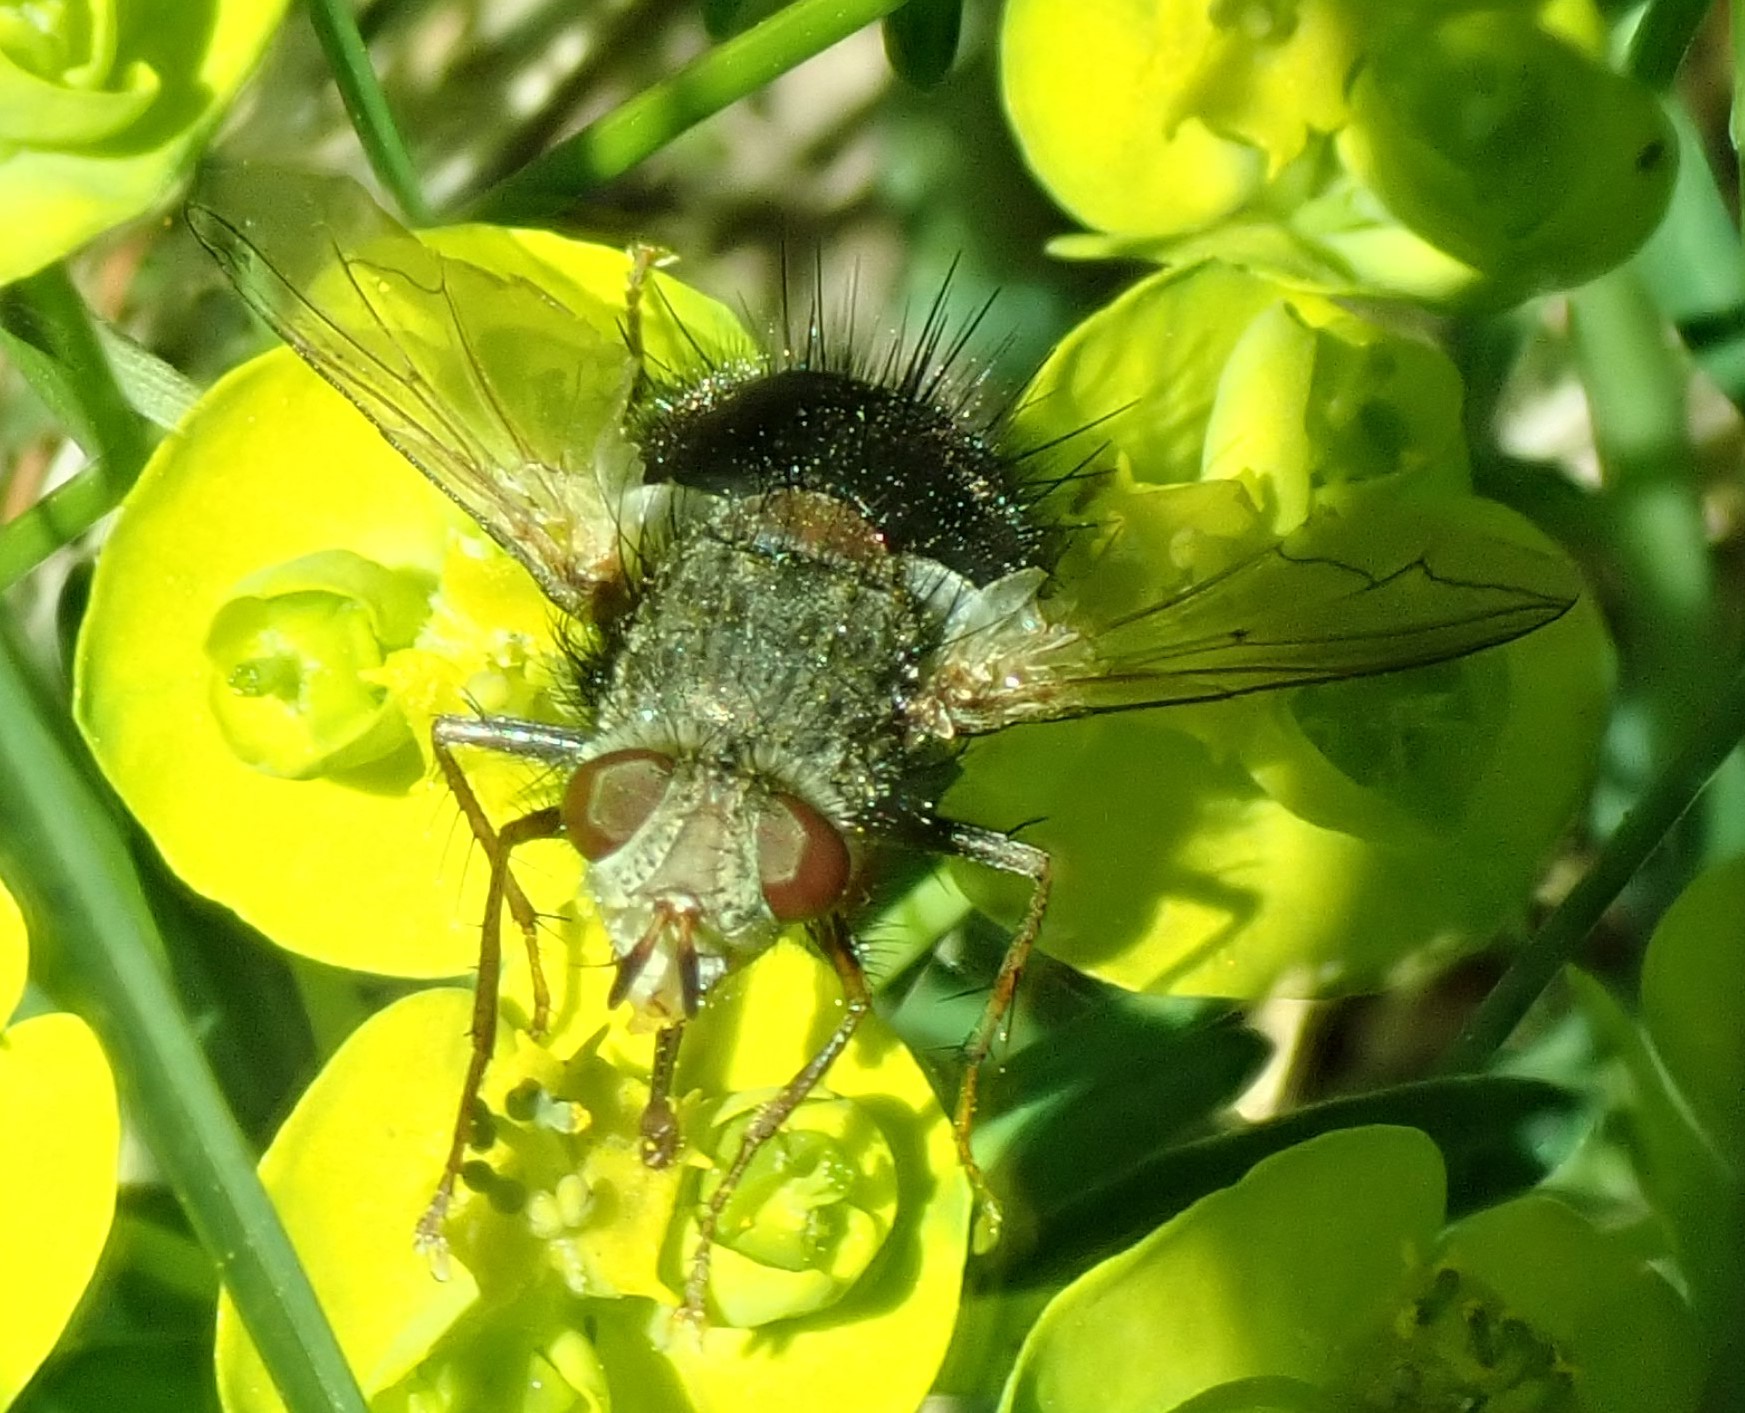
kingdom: Animalia
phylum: Arthropoda
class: Insecta
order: Diptera
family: Tachinidae
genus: Epalpus
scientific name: Epalpus signifer
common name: Early tachinid fly
